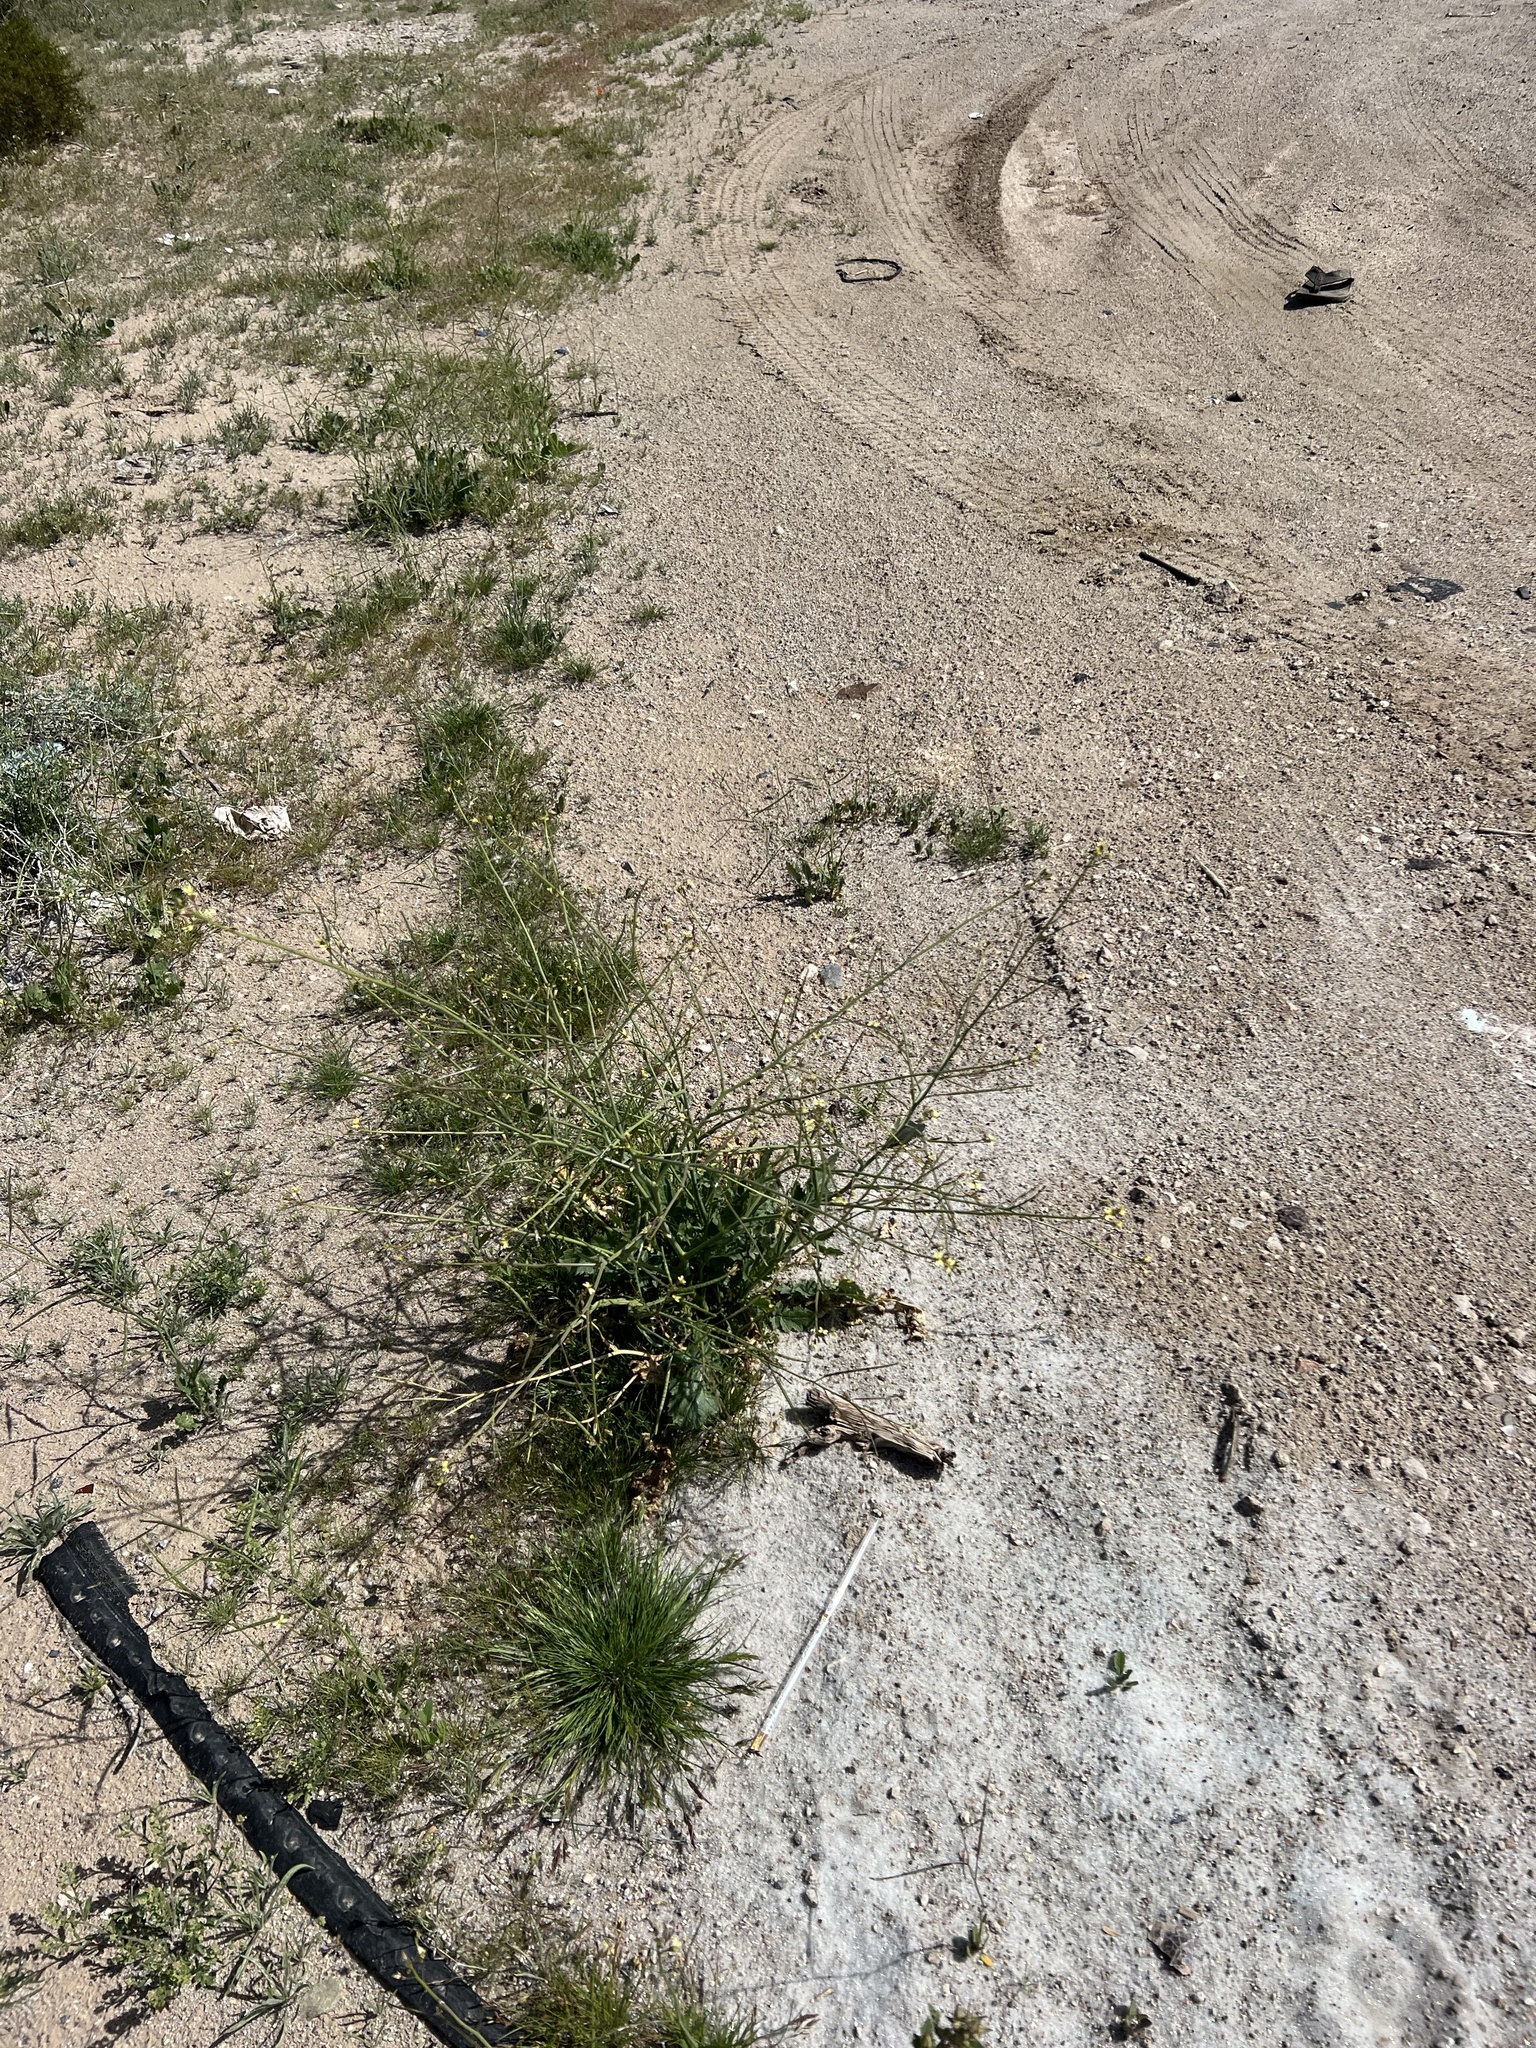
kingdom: Plantae
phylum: Tracheophyta
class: Magnoliopsida
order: Brassicales
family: Brassicaceae
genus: Brassica
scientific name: Brassica tournefortii
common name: Pale cabbage
